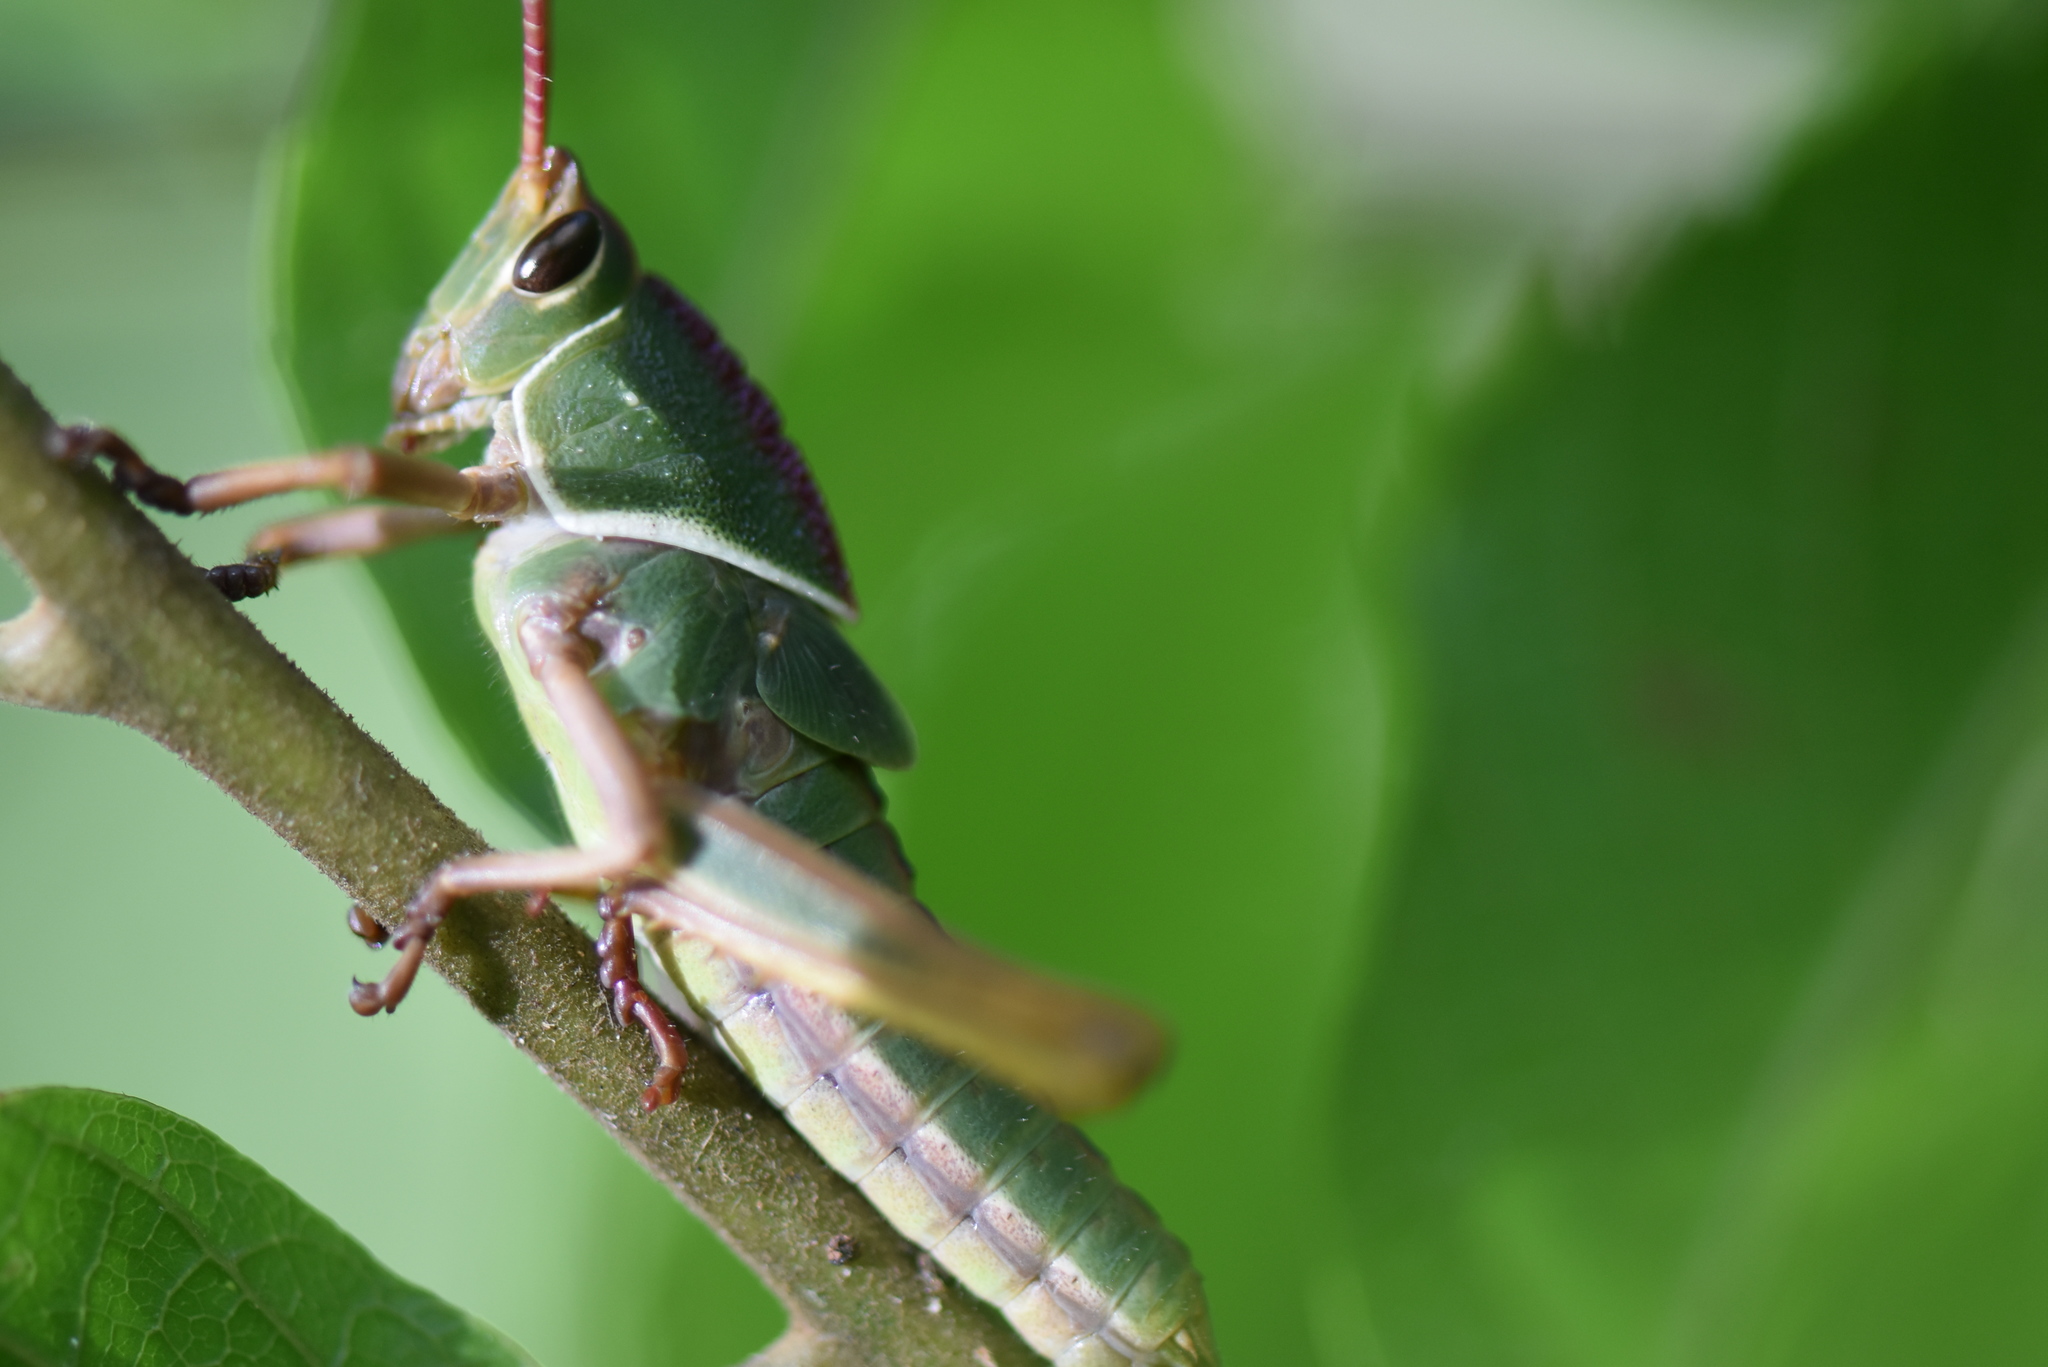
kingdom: Animalia
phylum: Arthropoda
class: Insecta
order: Orthoptera
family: Romaleidae
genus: Staleochlora
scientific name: Staleochlora arcuata
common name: Paraná purple-backed grasshopper
